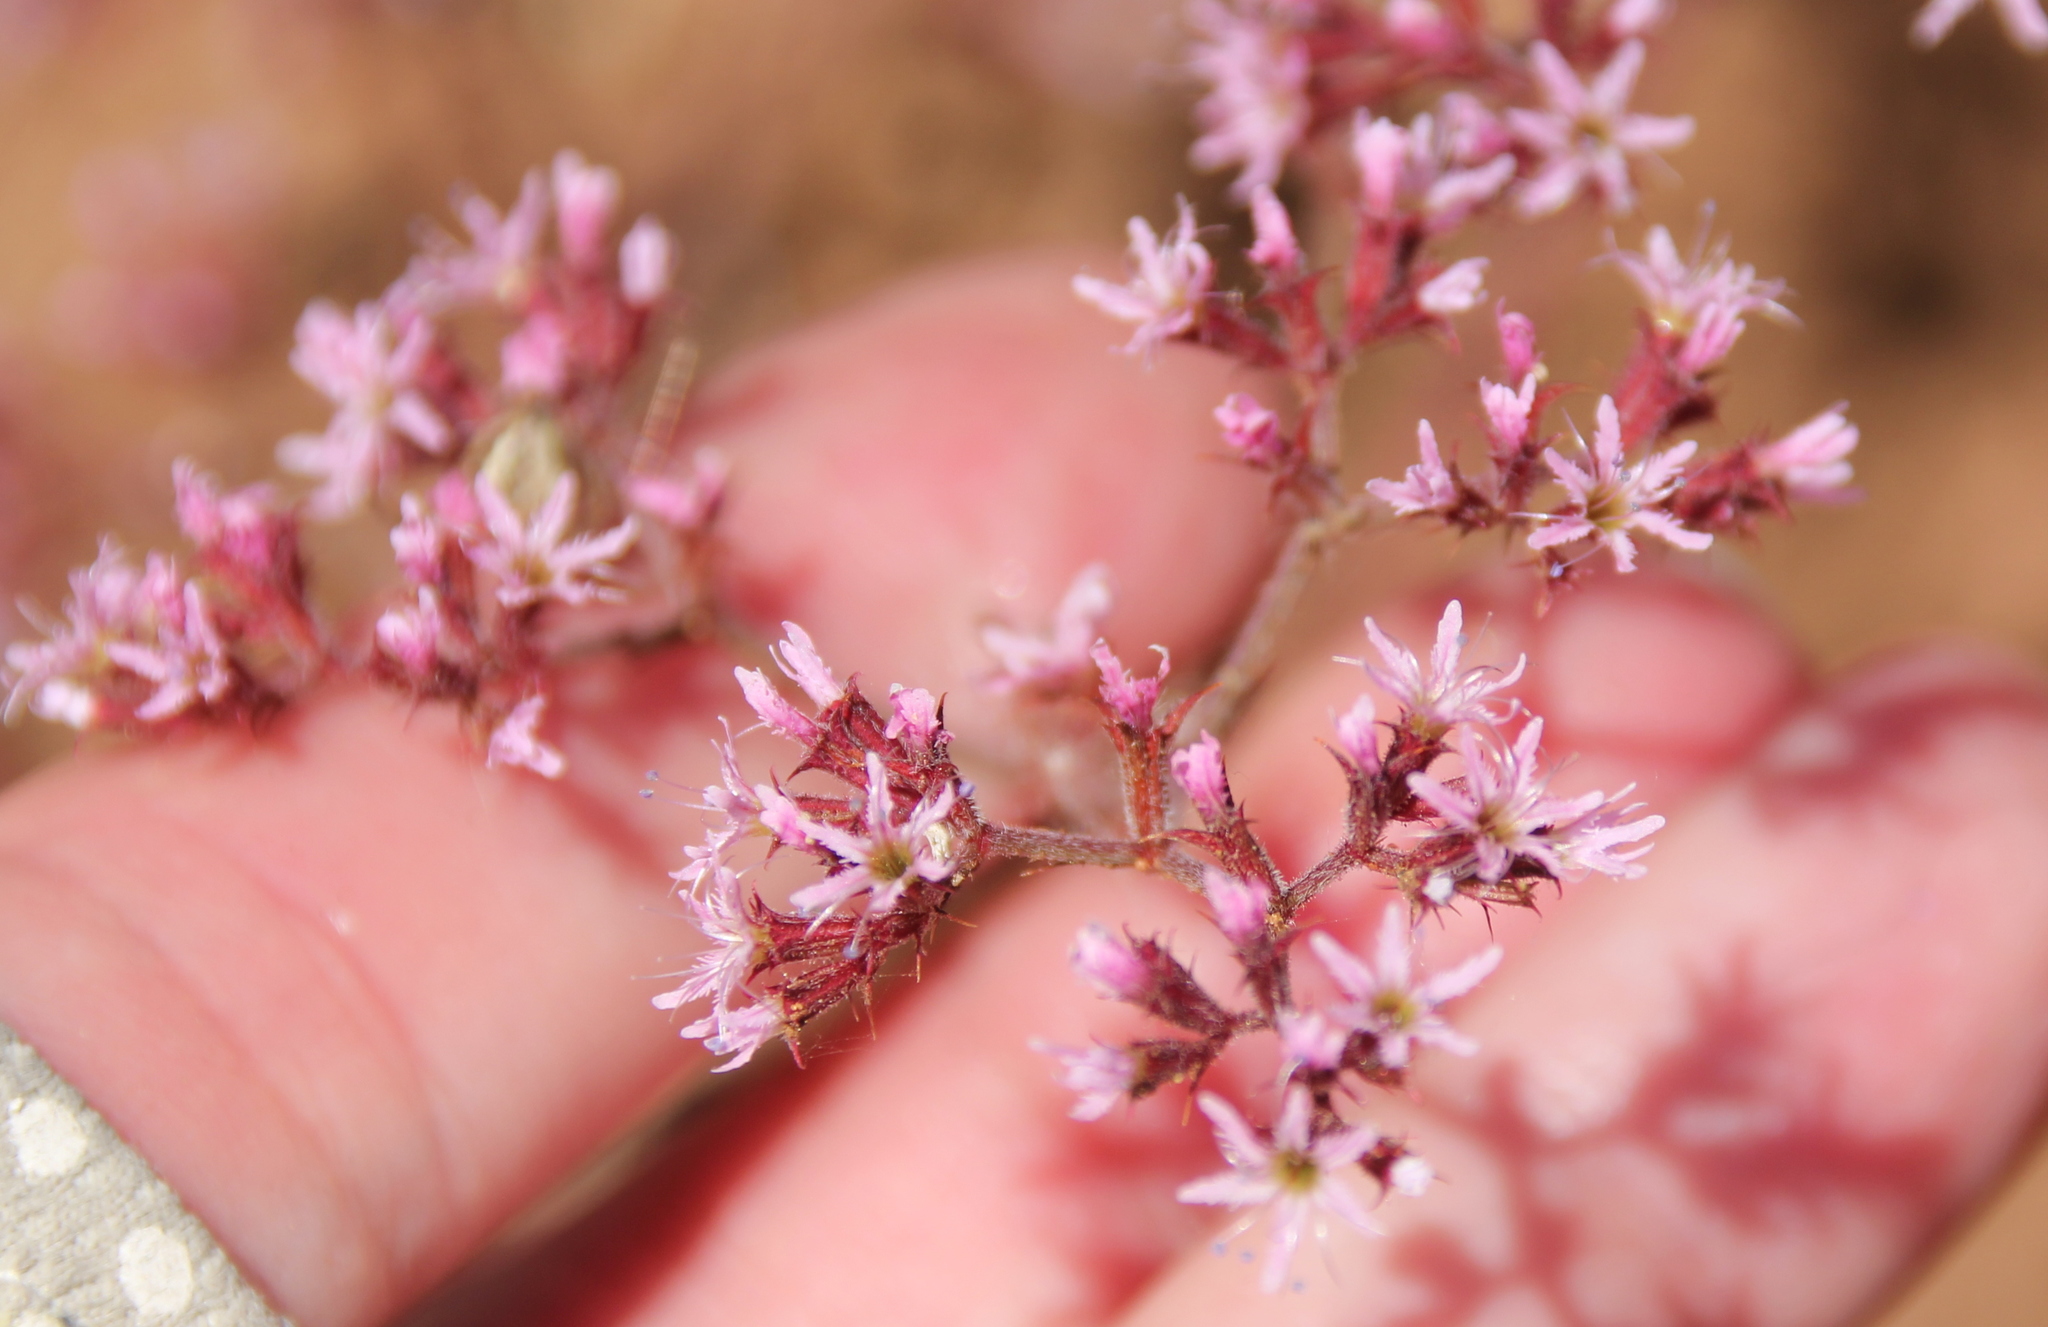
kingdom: Plantae
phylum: Tracheophyta
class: Magnoliopsida
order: Caryophyllales
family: Polygonaceae
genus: Chorizanthe
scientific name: Chorizanthe fimbriata
